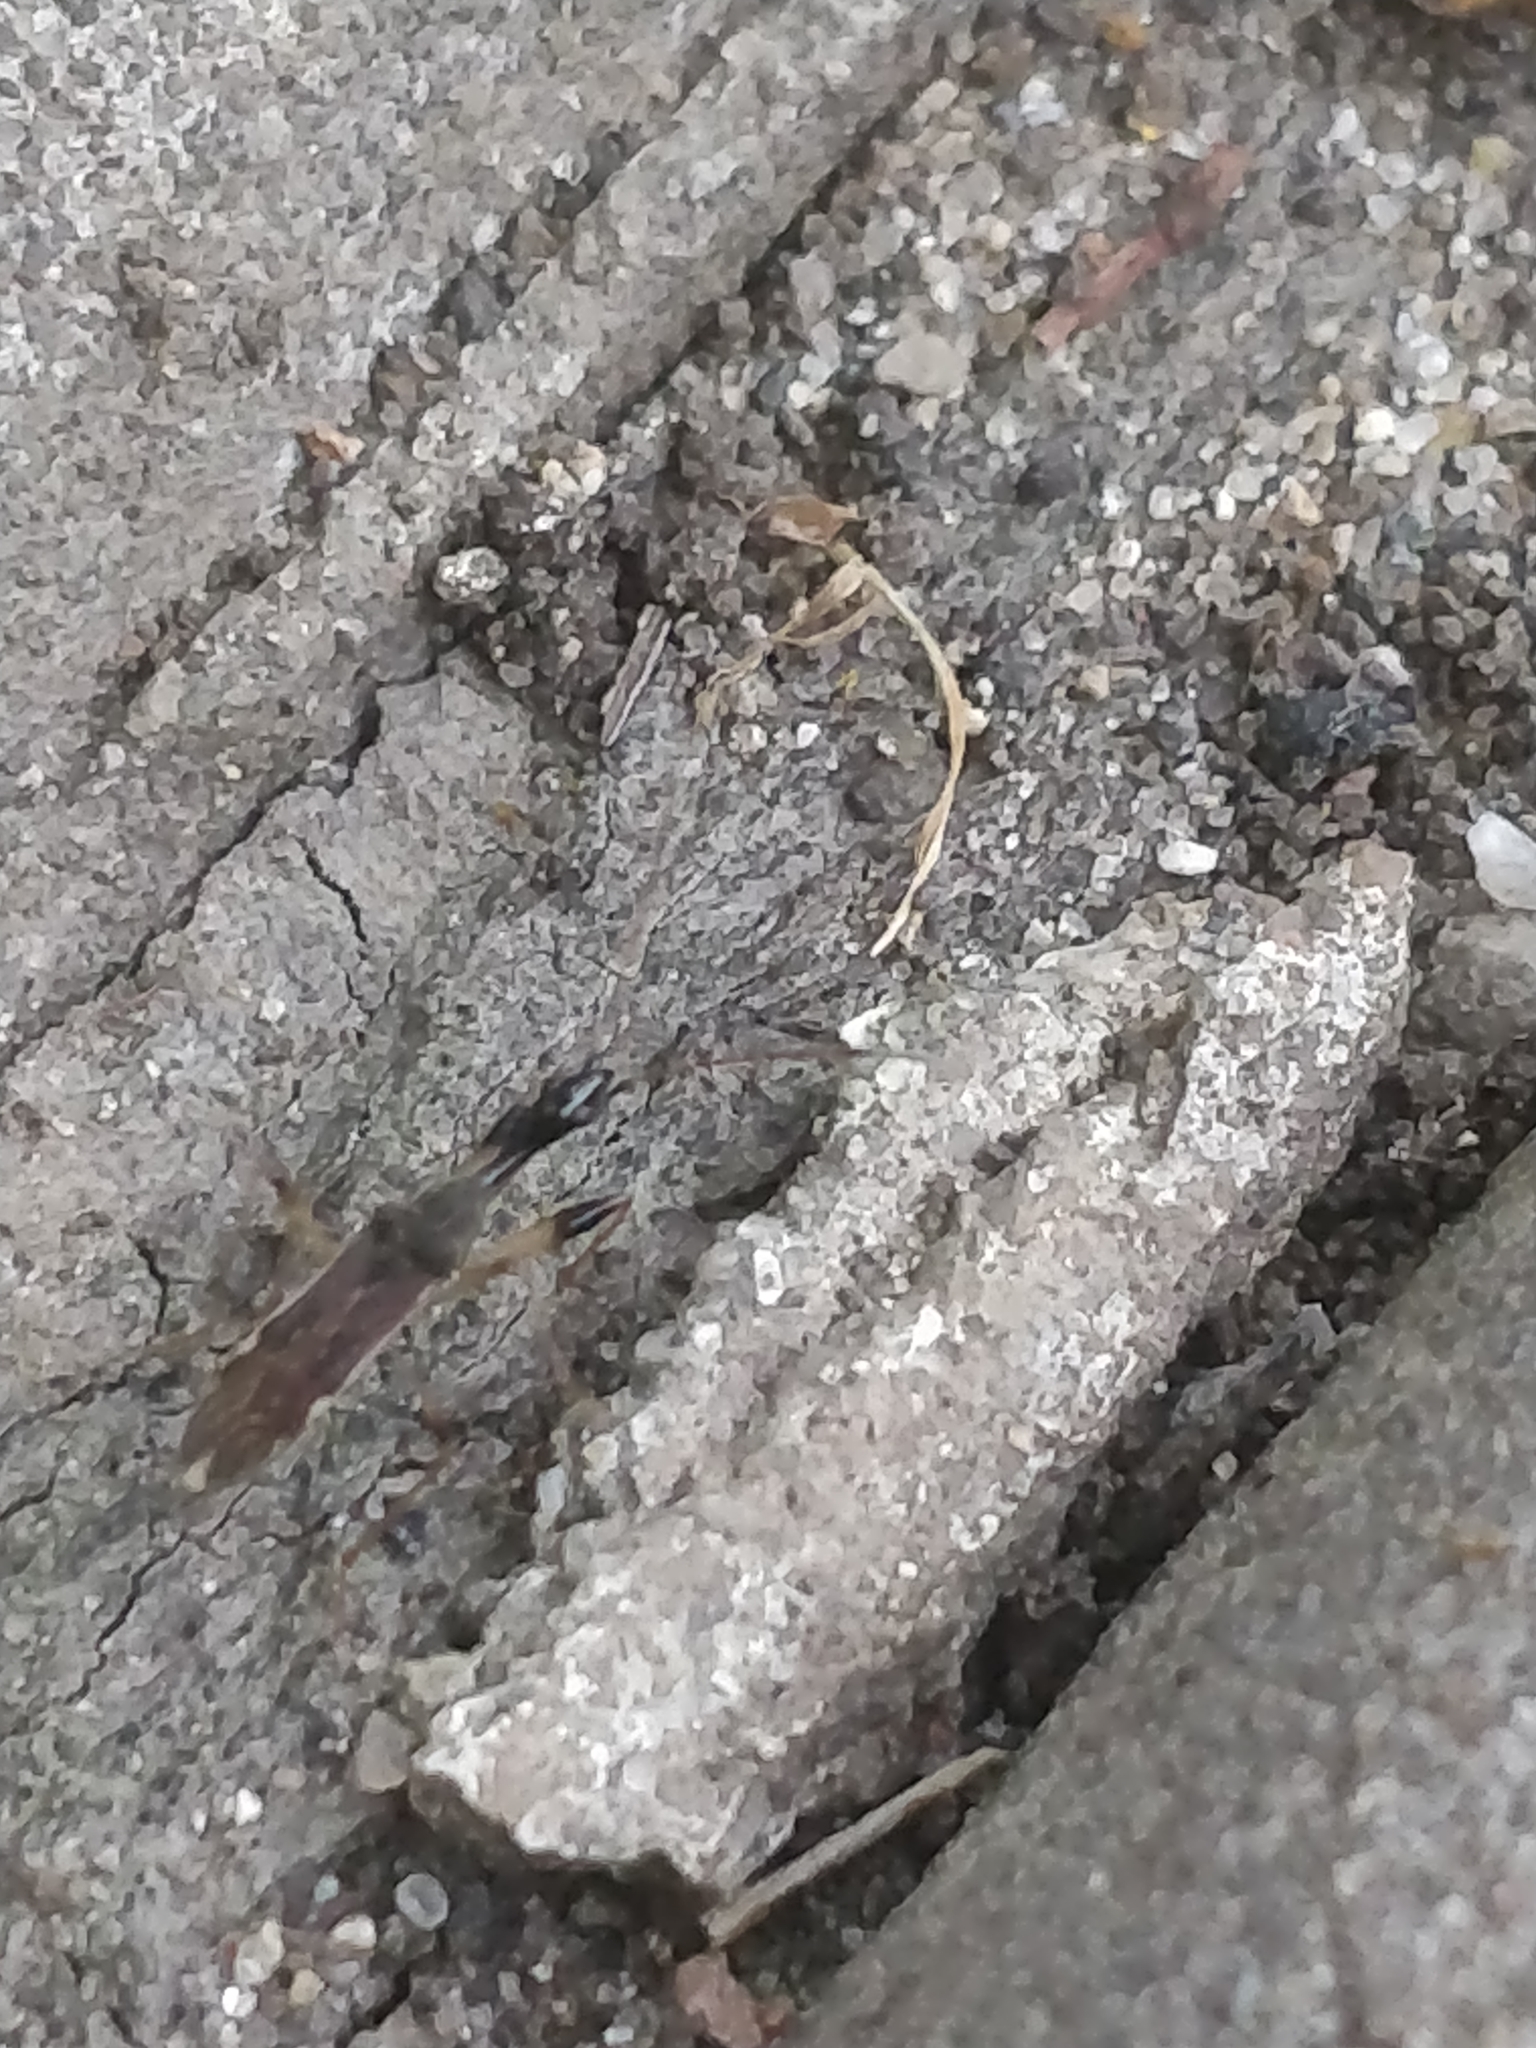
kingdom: Animalia
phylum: Arthropoda
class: Insecta
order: Hemiptera
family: Rhyparochromidae
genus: Myodocha
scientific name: Myodocha serripes
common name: Long-necked seed bug
